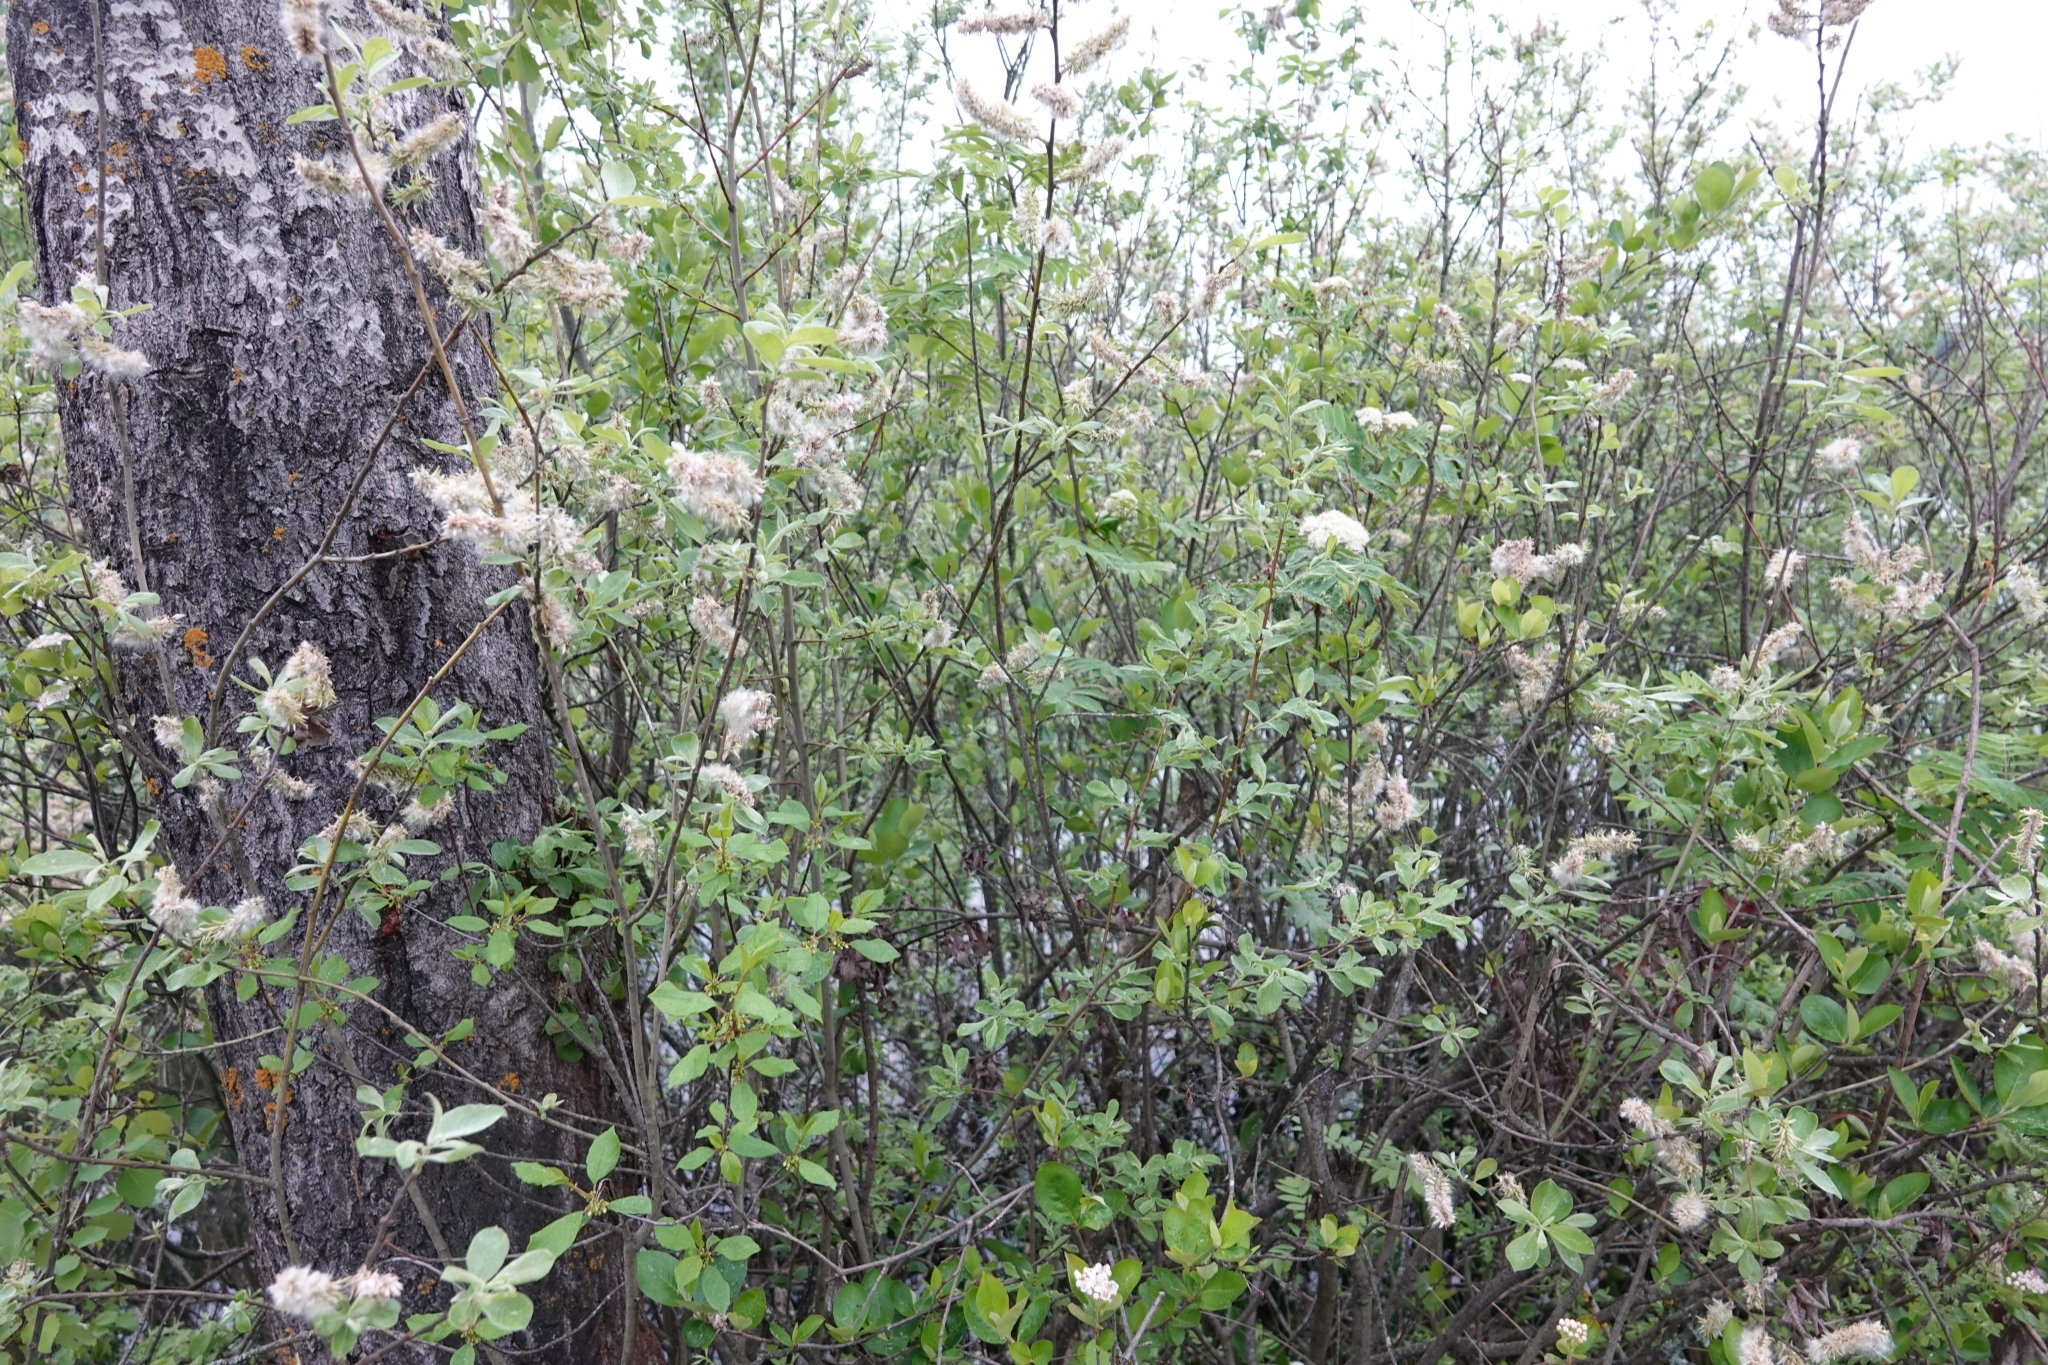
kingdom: Plantae
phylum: Tracheophyta
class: Magnoliopsida
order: Rosales
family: Rosaceae
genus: Sorbaronia
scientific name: Sorbaronia arsenii
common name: Arsène's mountain-ash
